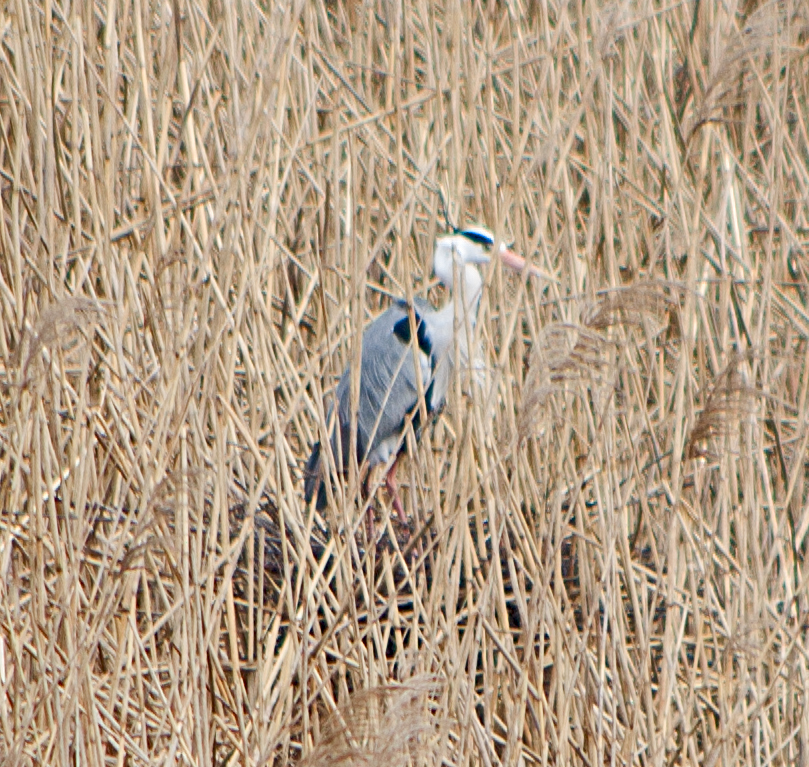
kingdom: Animalia
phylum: Chordata
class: Aves
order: Pelecaniformes
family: Ardeidae
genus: Ardea
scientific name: Ardea cinerea
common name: Grey heron
